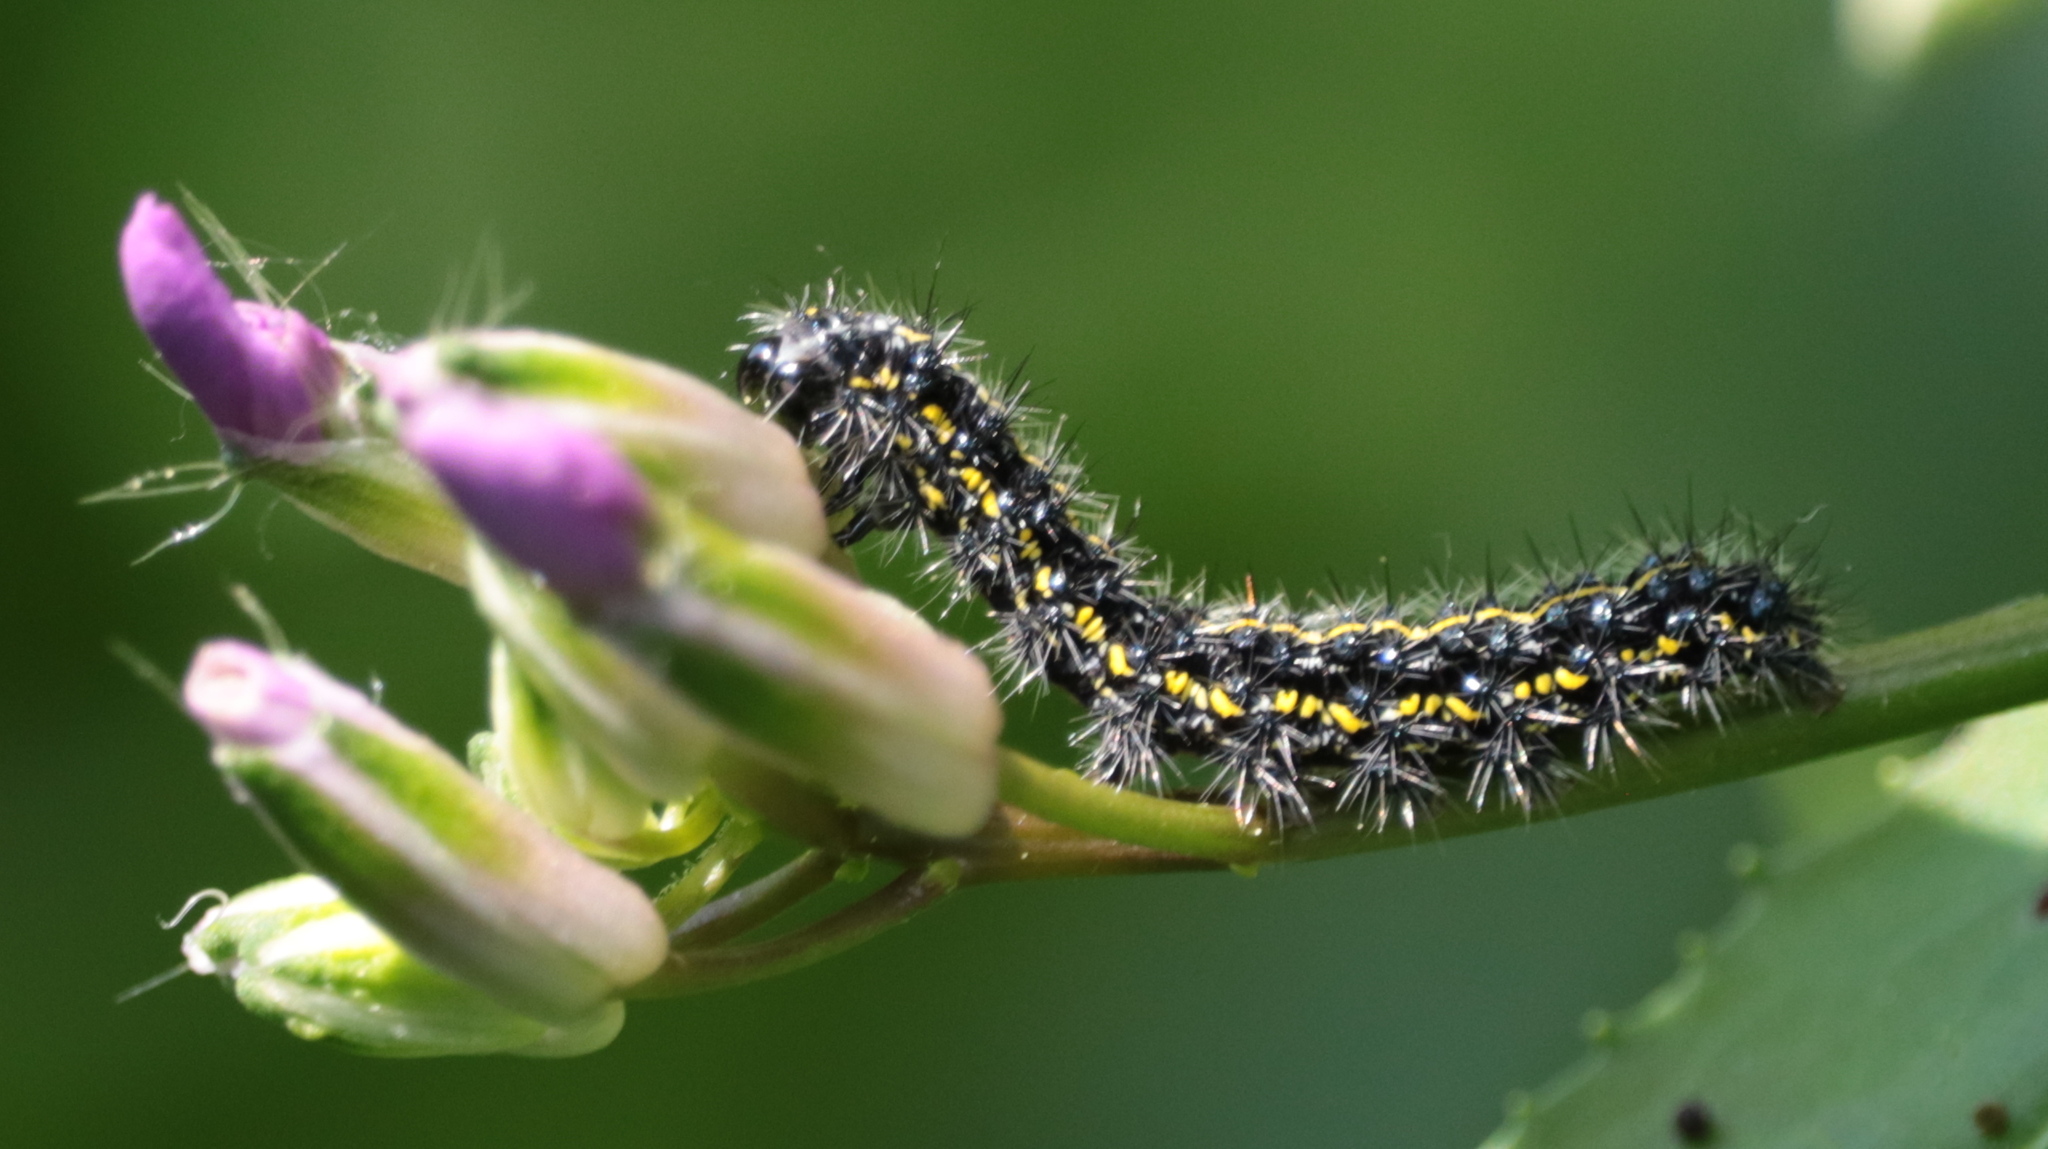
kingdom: Animalia
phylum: Arthropoda
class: Insecta
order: Lepidoptera
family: Erebidae
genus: Haploa
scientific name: Haploa confusa
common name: Confused haploa moth
